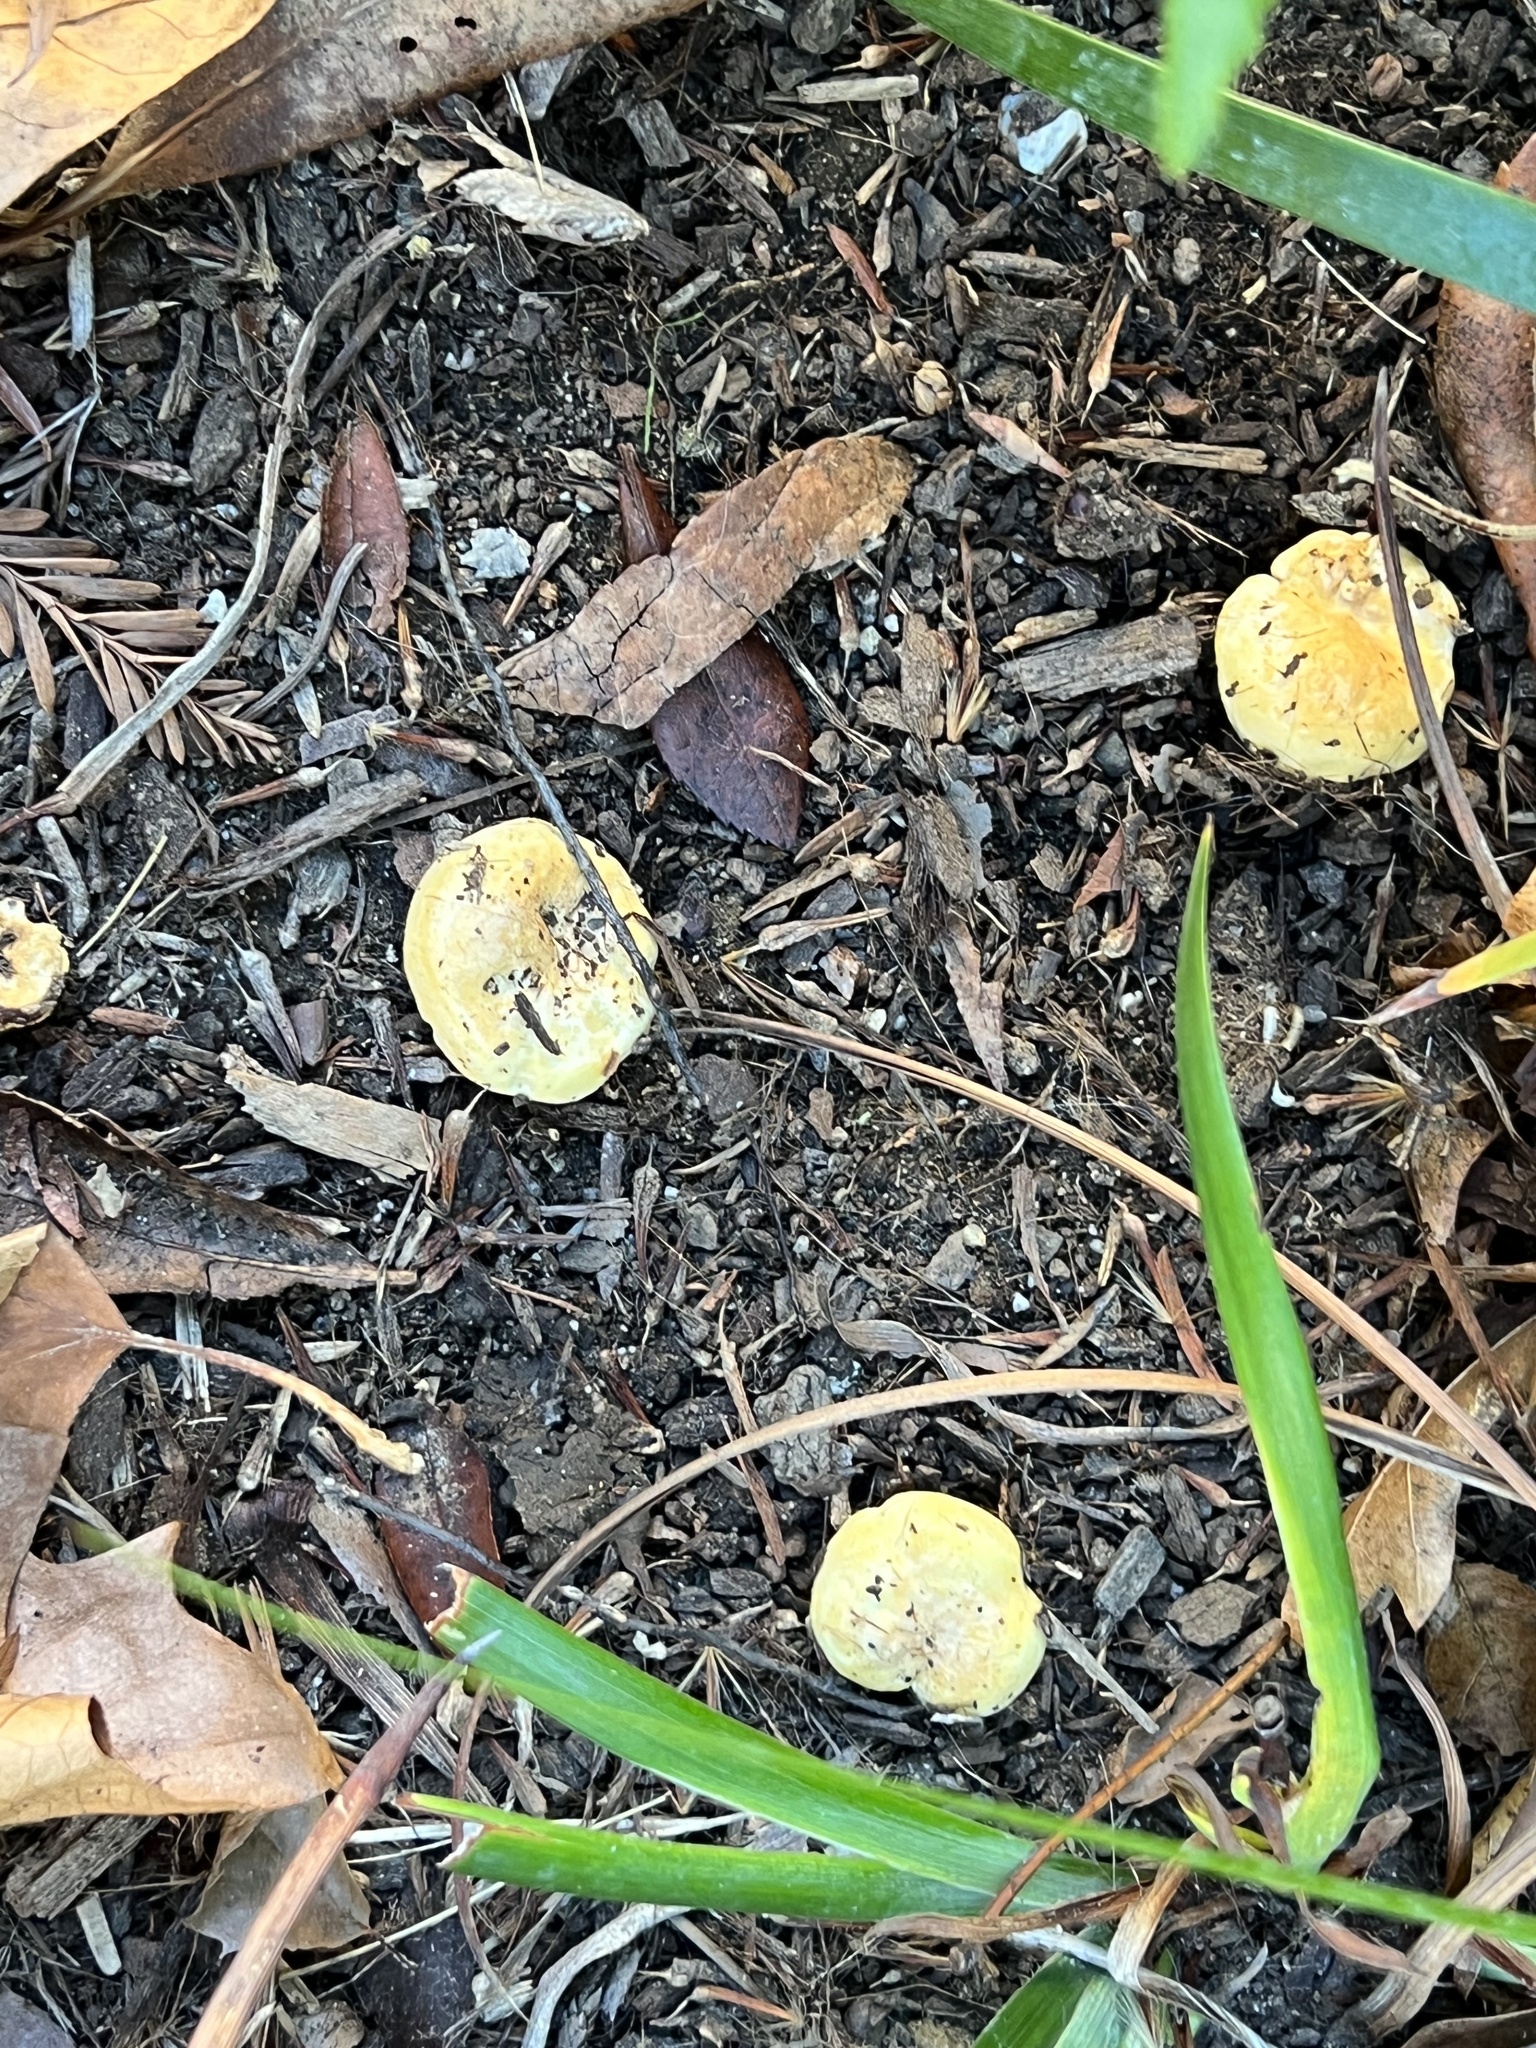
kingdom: Fungi
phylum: Basidiomycota
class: Agaricomycetes
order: Russulales
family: Russulaceae
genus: Lactarius
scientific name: Lactarius alnicola
